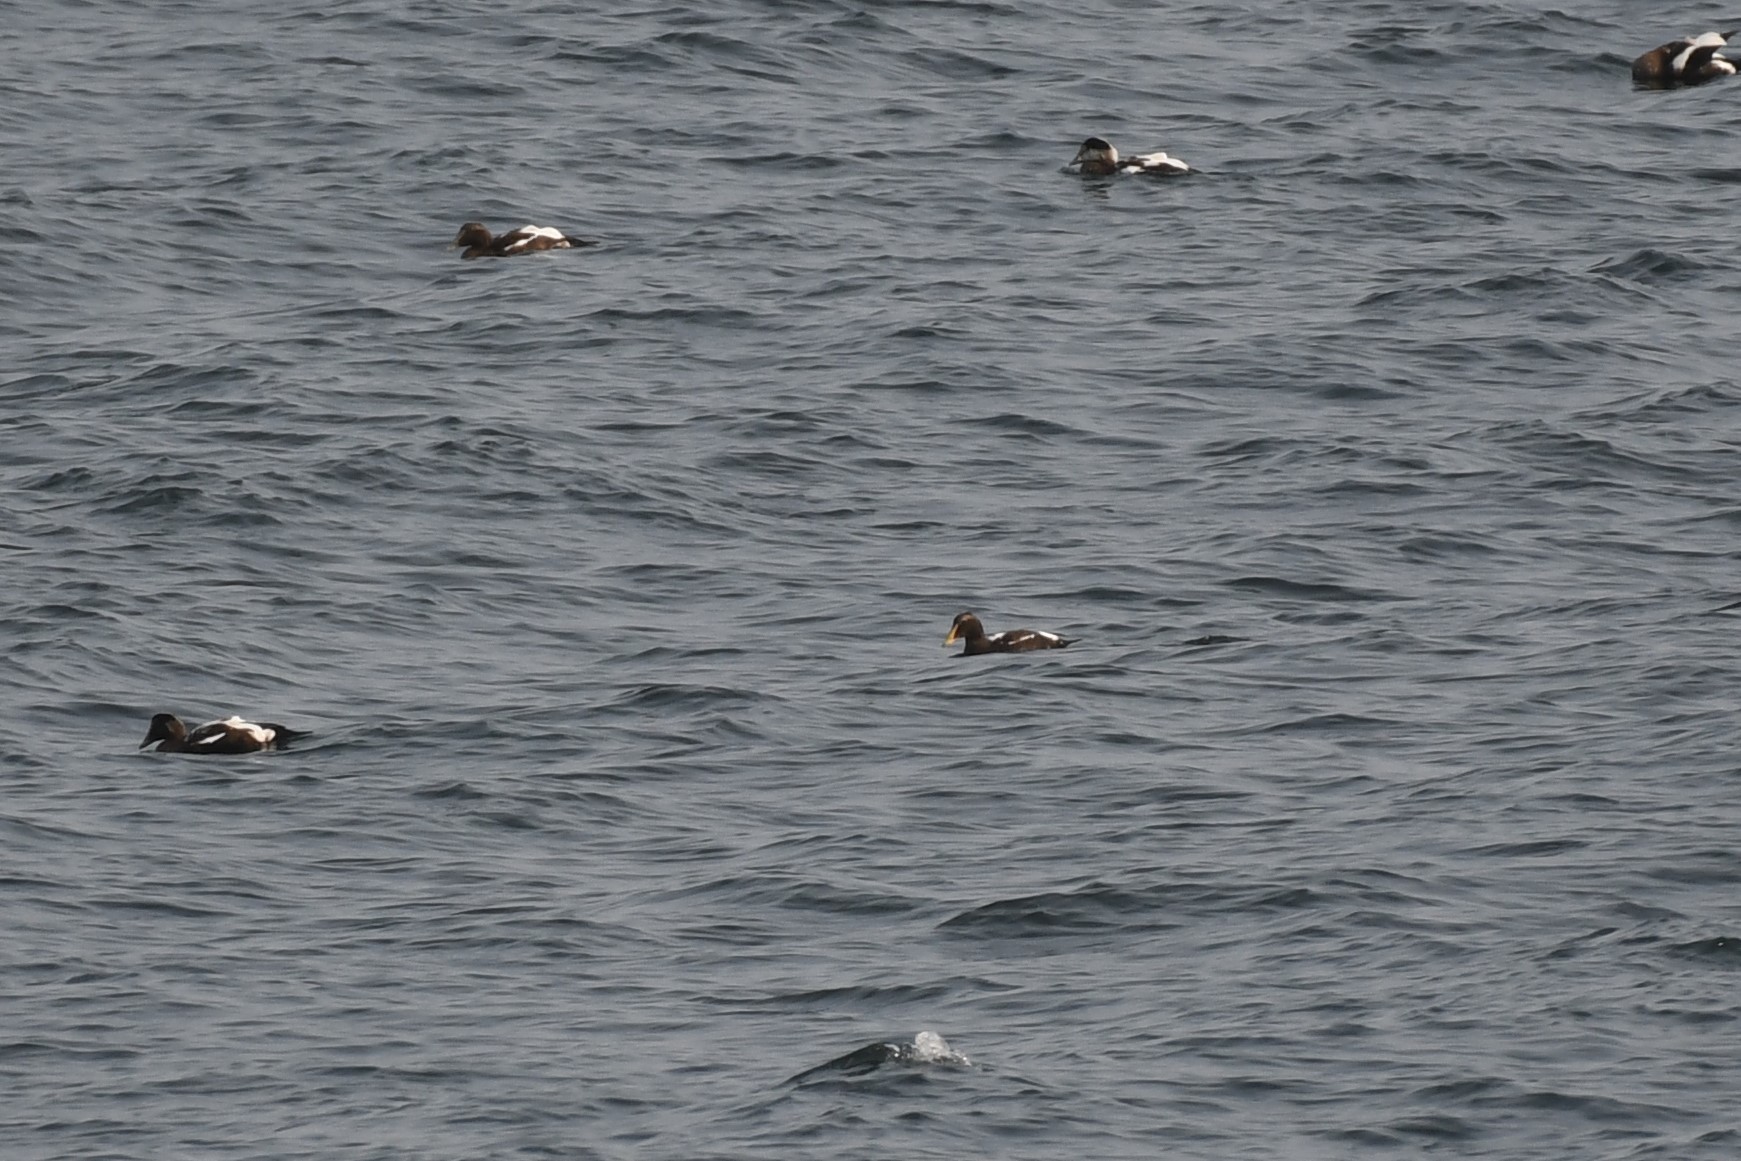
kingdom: Animalia
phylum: Chordata
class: Aves
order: Anseriformes
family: Anatidae
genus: Somateria
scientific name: Somateria mollissima
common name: Common eider
